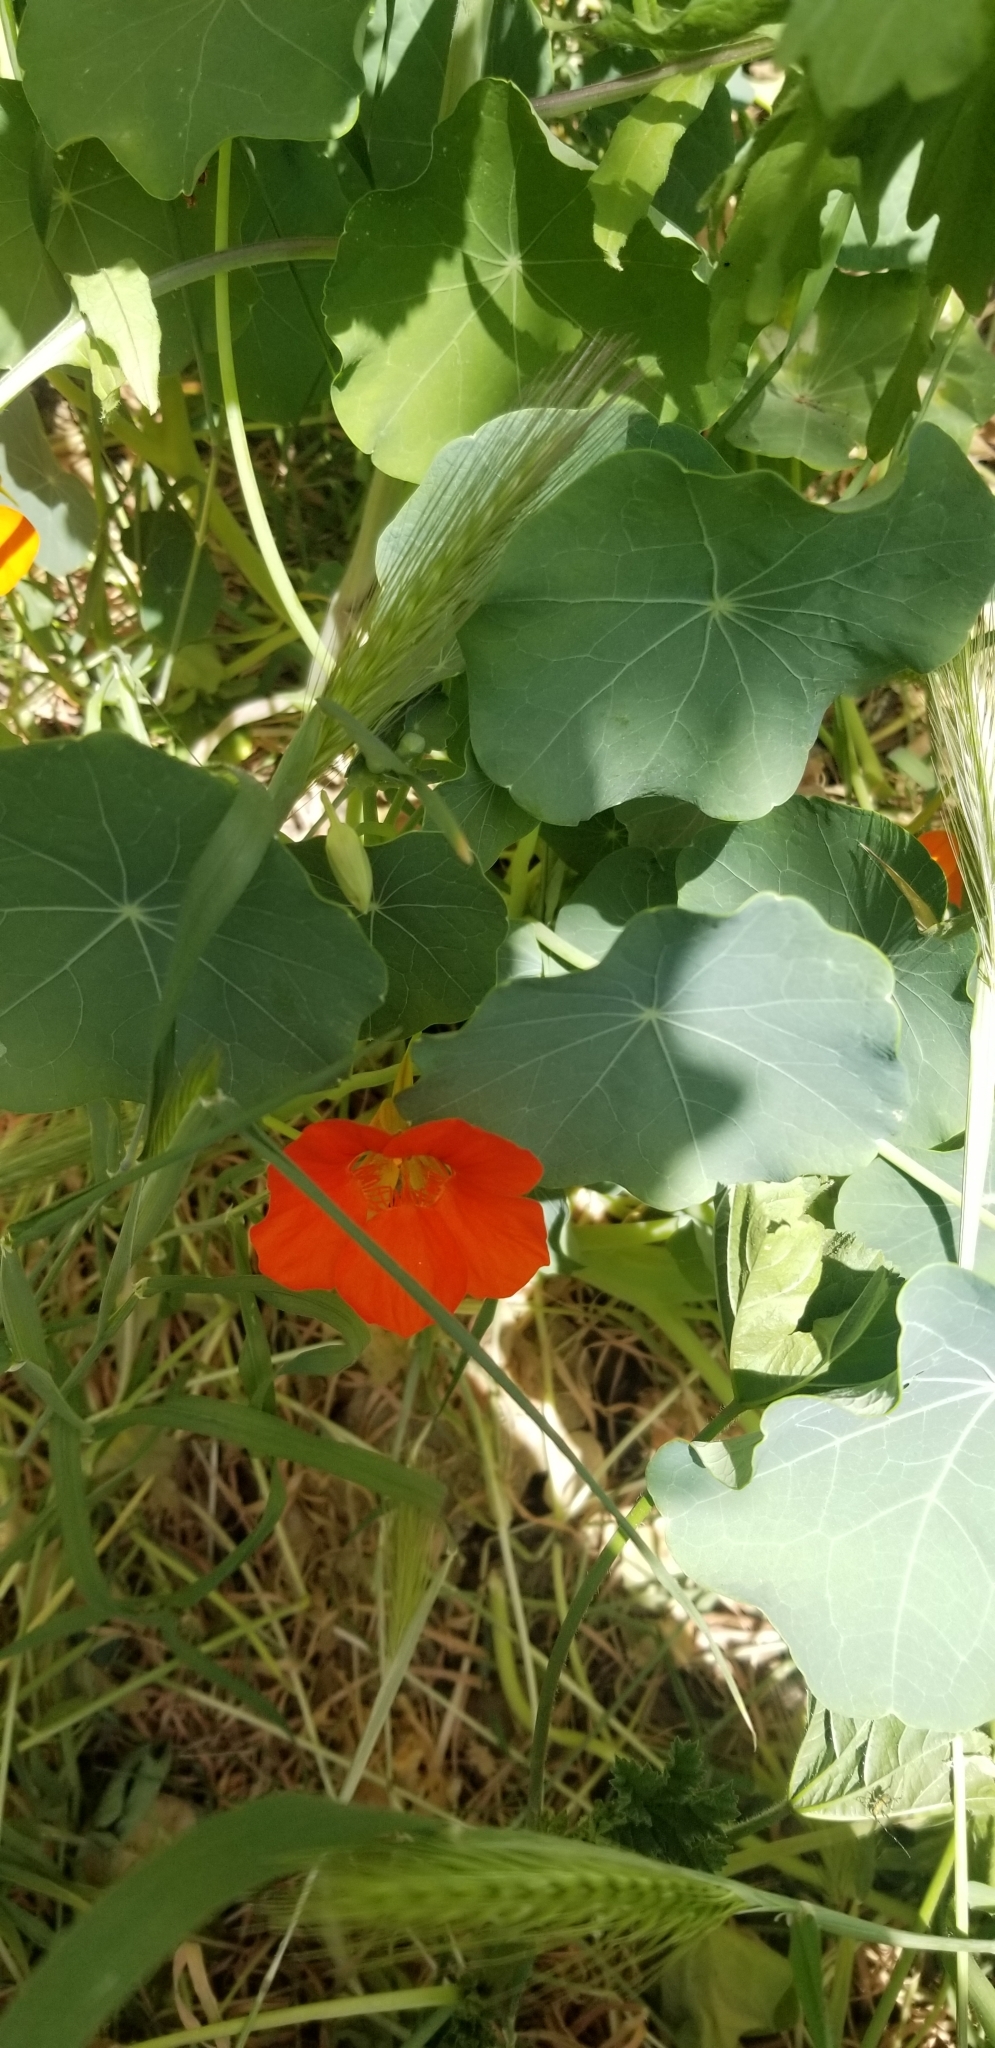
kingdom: Plantae
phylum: Tracheophyta
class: Magnoliopsida
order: Brassicales
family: Tropaeolaceae
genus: Tropaeolum
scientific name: Tropaeolum majus
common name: Nasturtium
